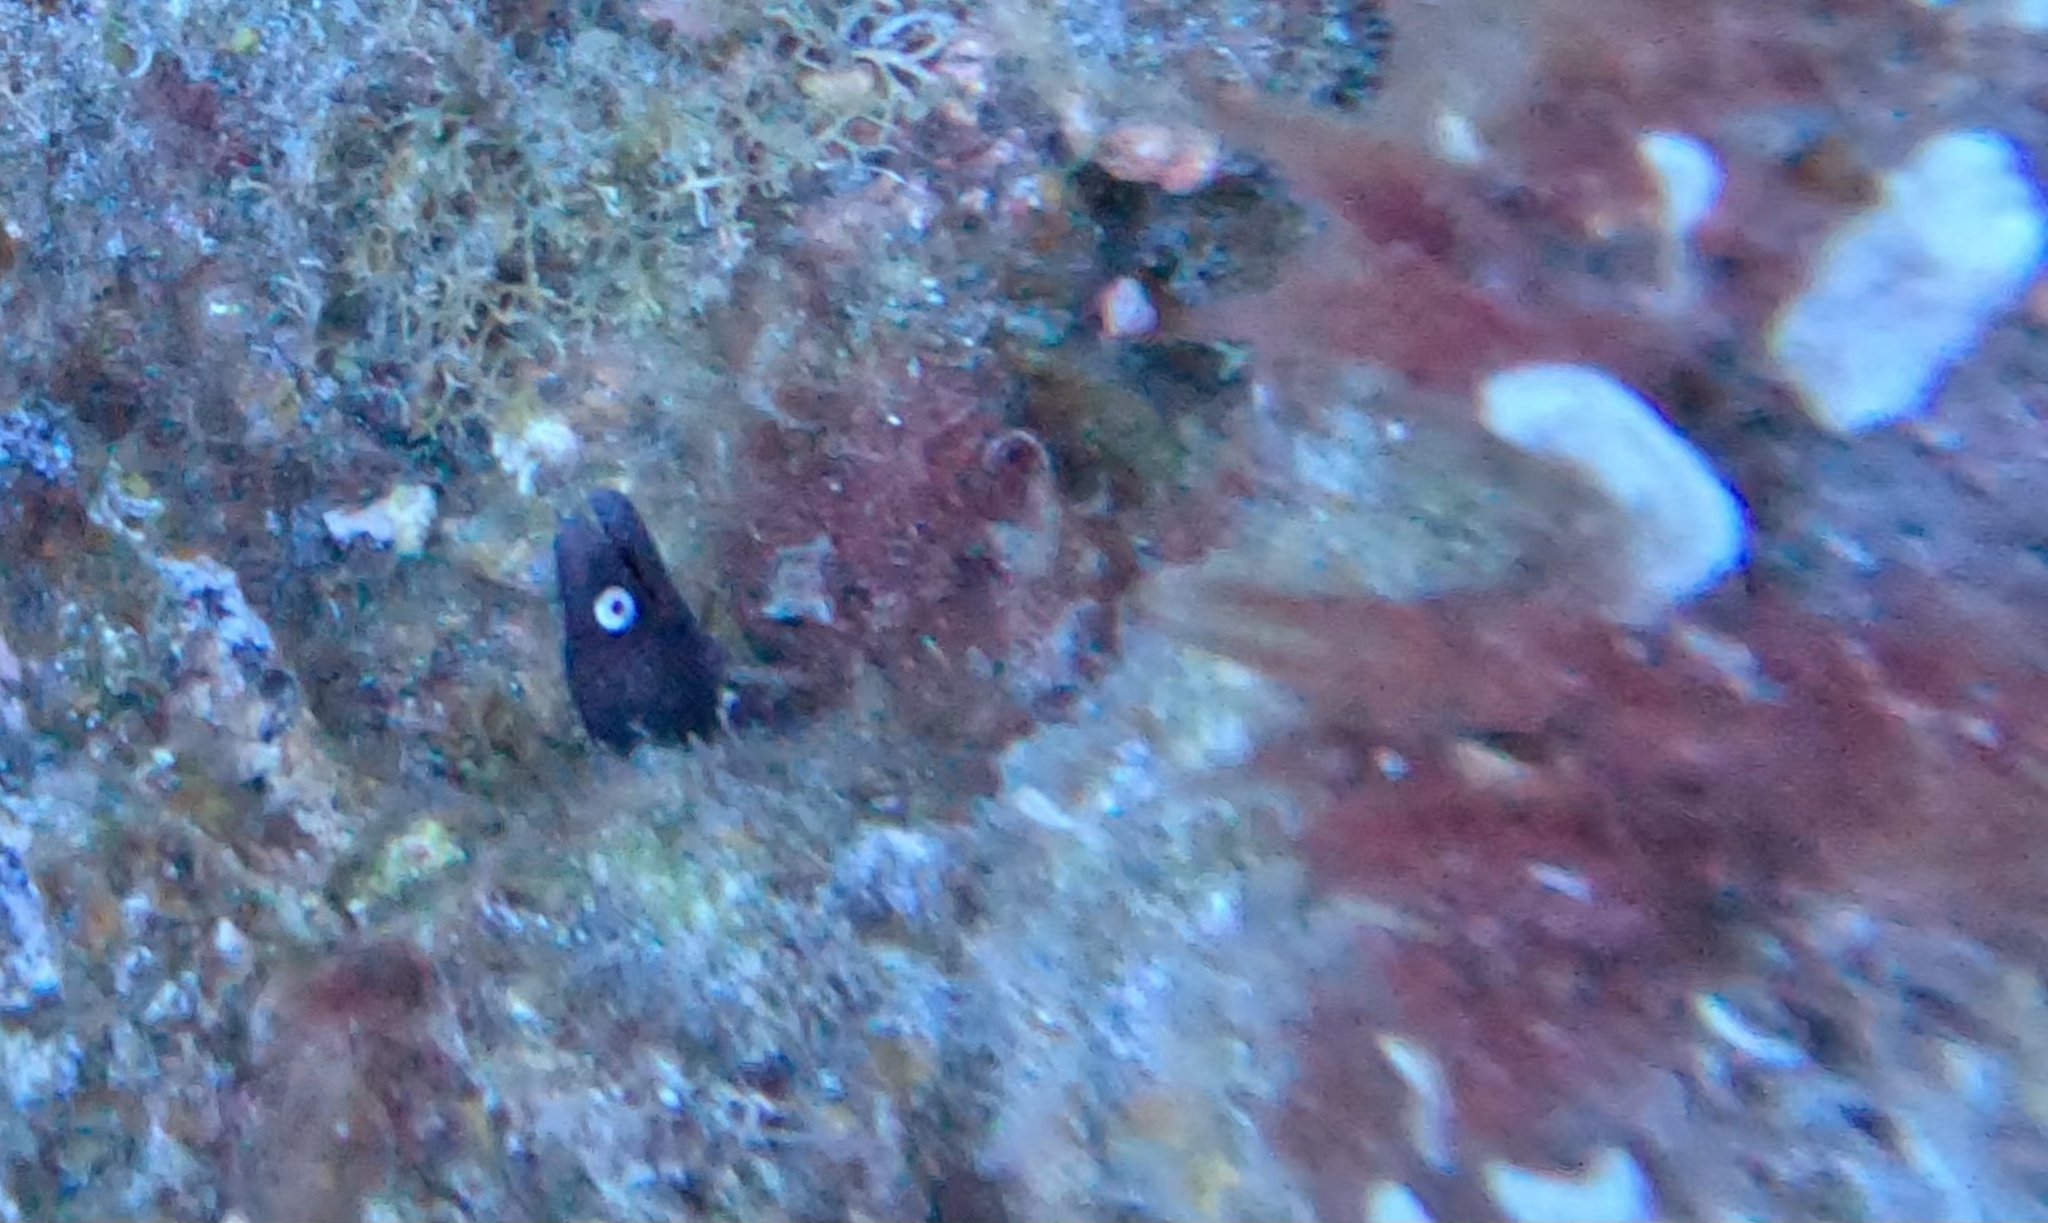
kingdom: Animalia
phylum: Chordata
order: Anguilliformes
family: Muraenidae
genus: Muraena
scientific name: Muraena augusti
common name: Mediterranean moray
